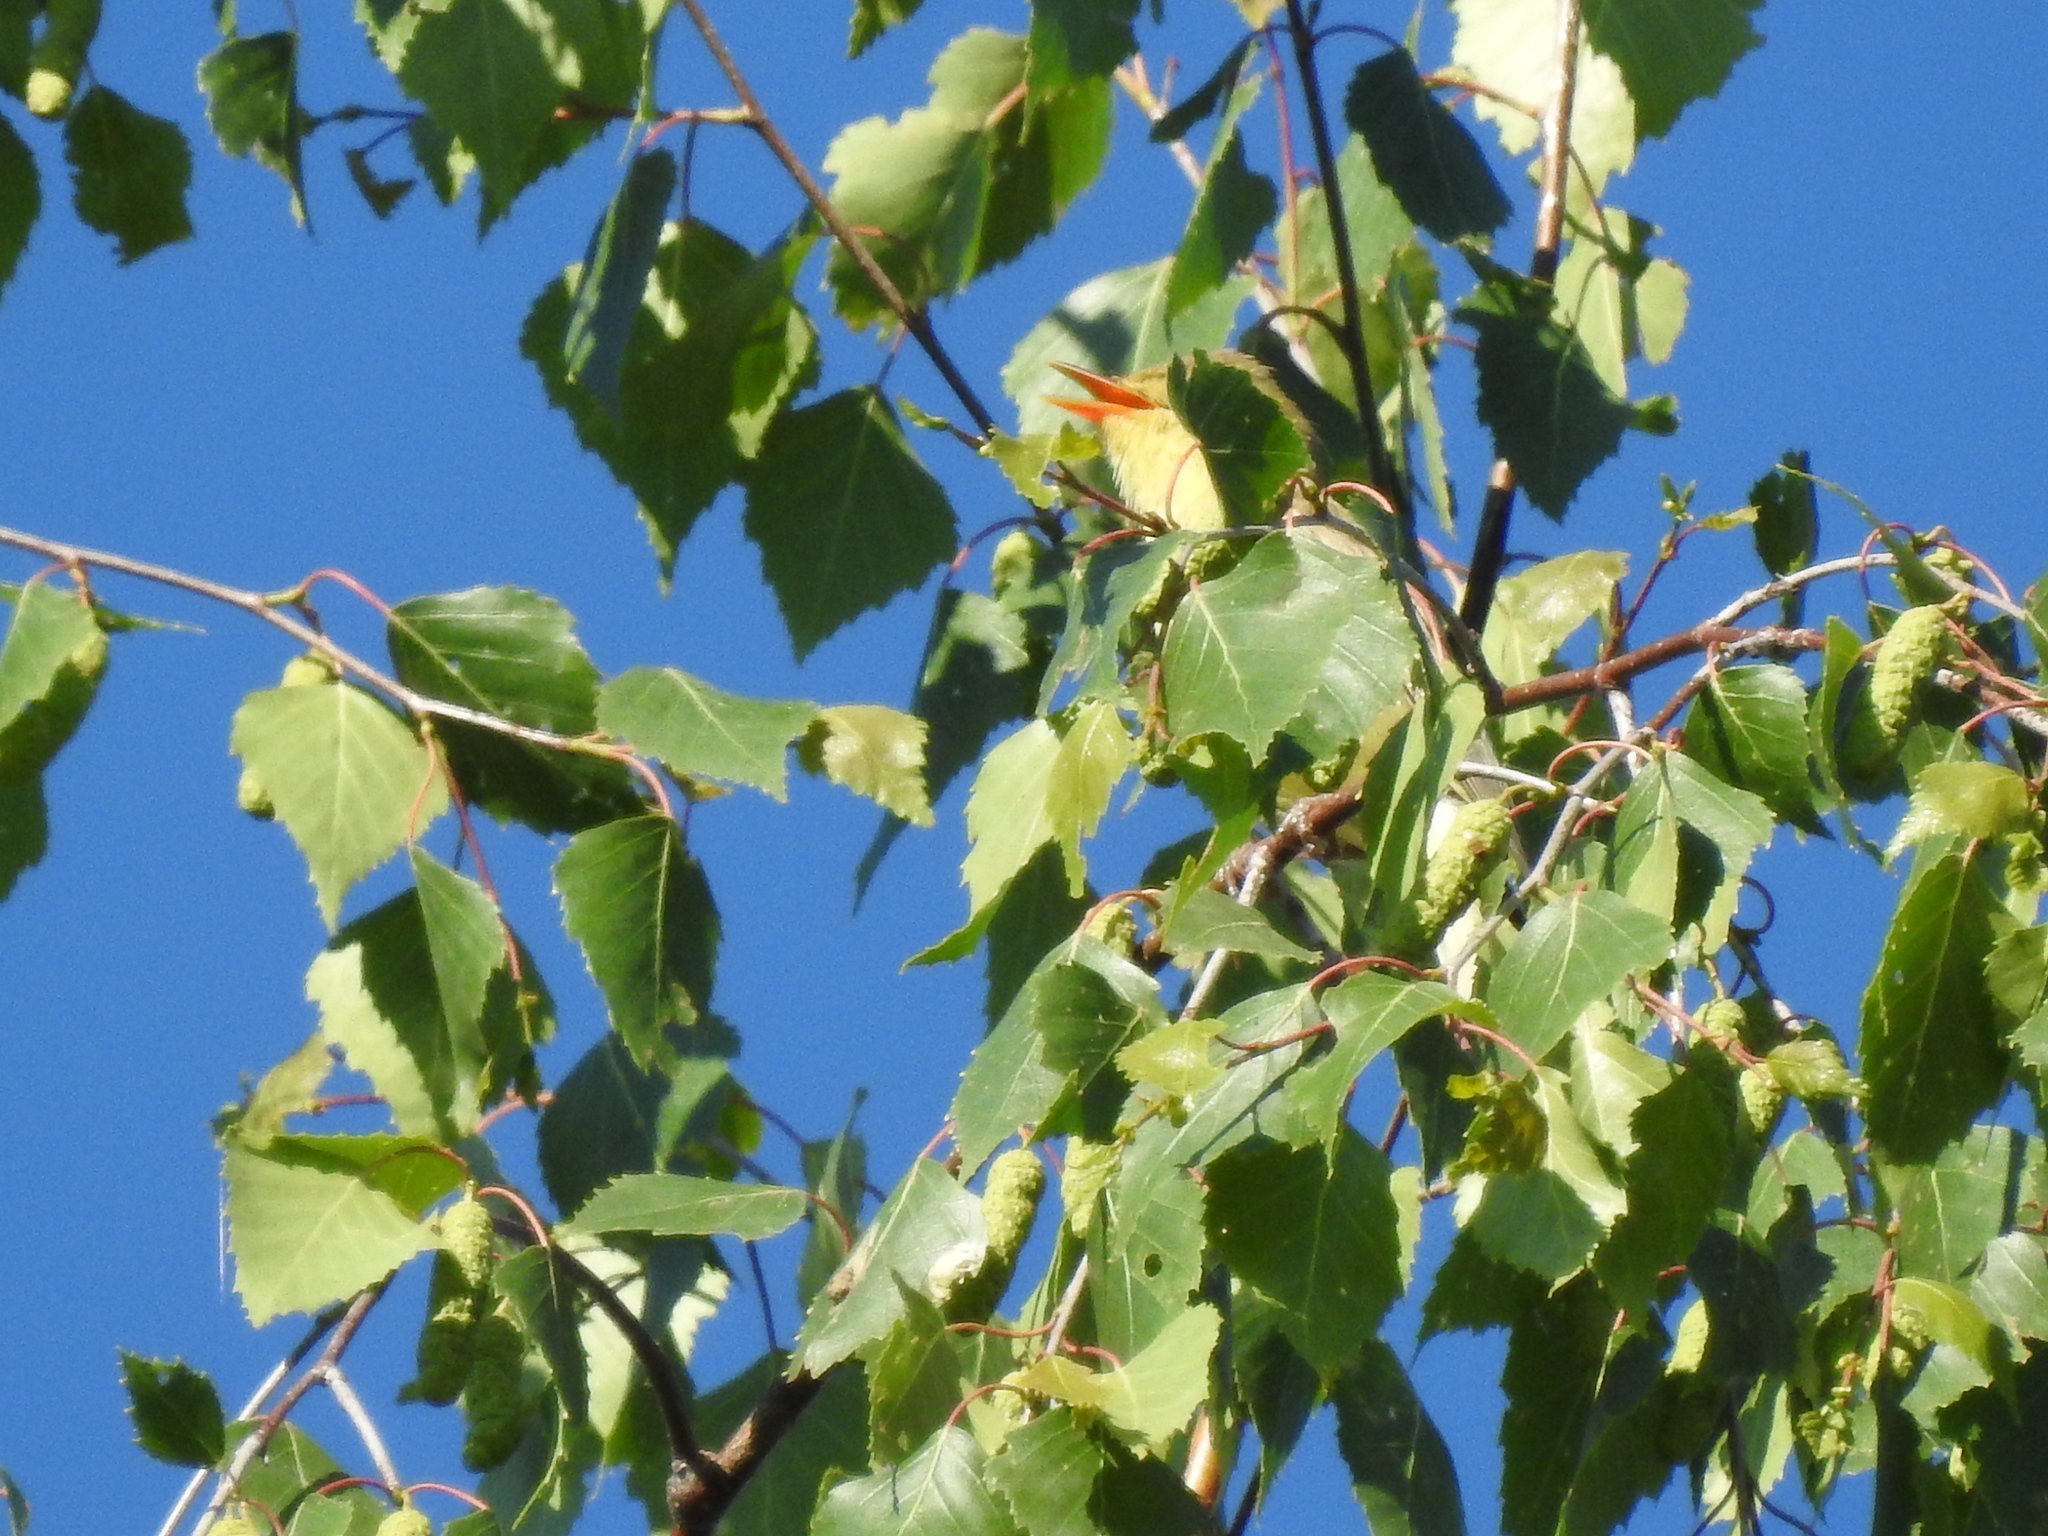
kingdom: Animalia
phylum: Chordata
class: Aves
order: Passeriformes
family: Acrocephalidae
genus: Hippolais
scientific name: Hippolais icterina
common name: Icterine warbler
